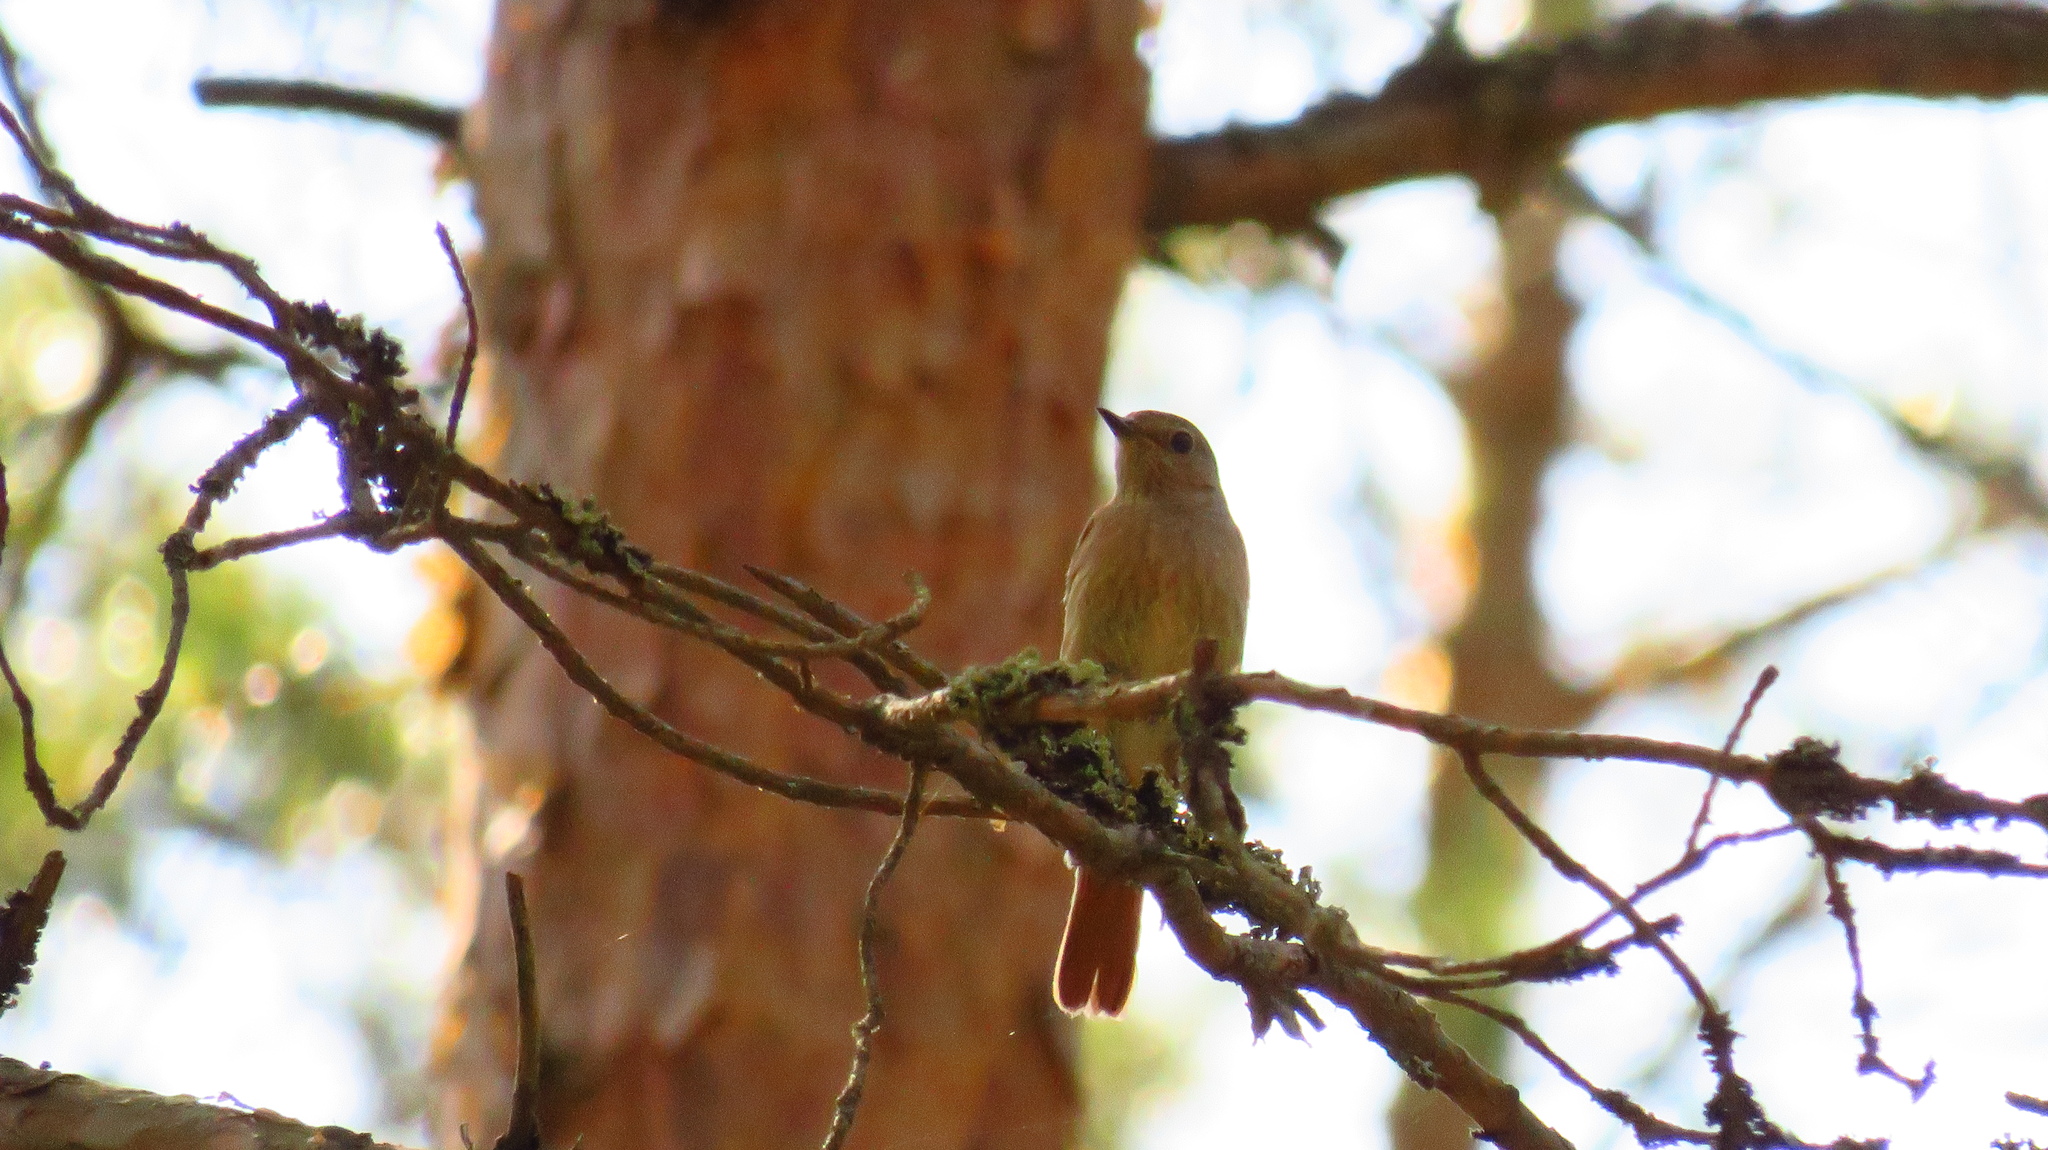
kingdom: Animalia
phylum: Chordata
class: Aves
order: Passeriformes
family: Muscicapidae
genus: Phoenicurus
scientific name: Phoenicurus phoenicurus
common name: Common redstart
